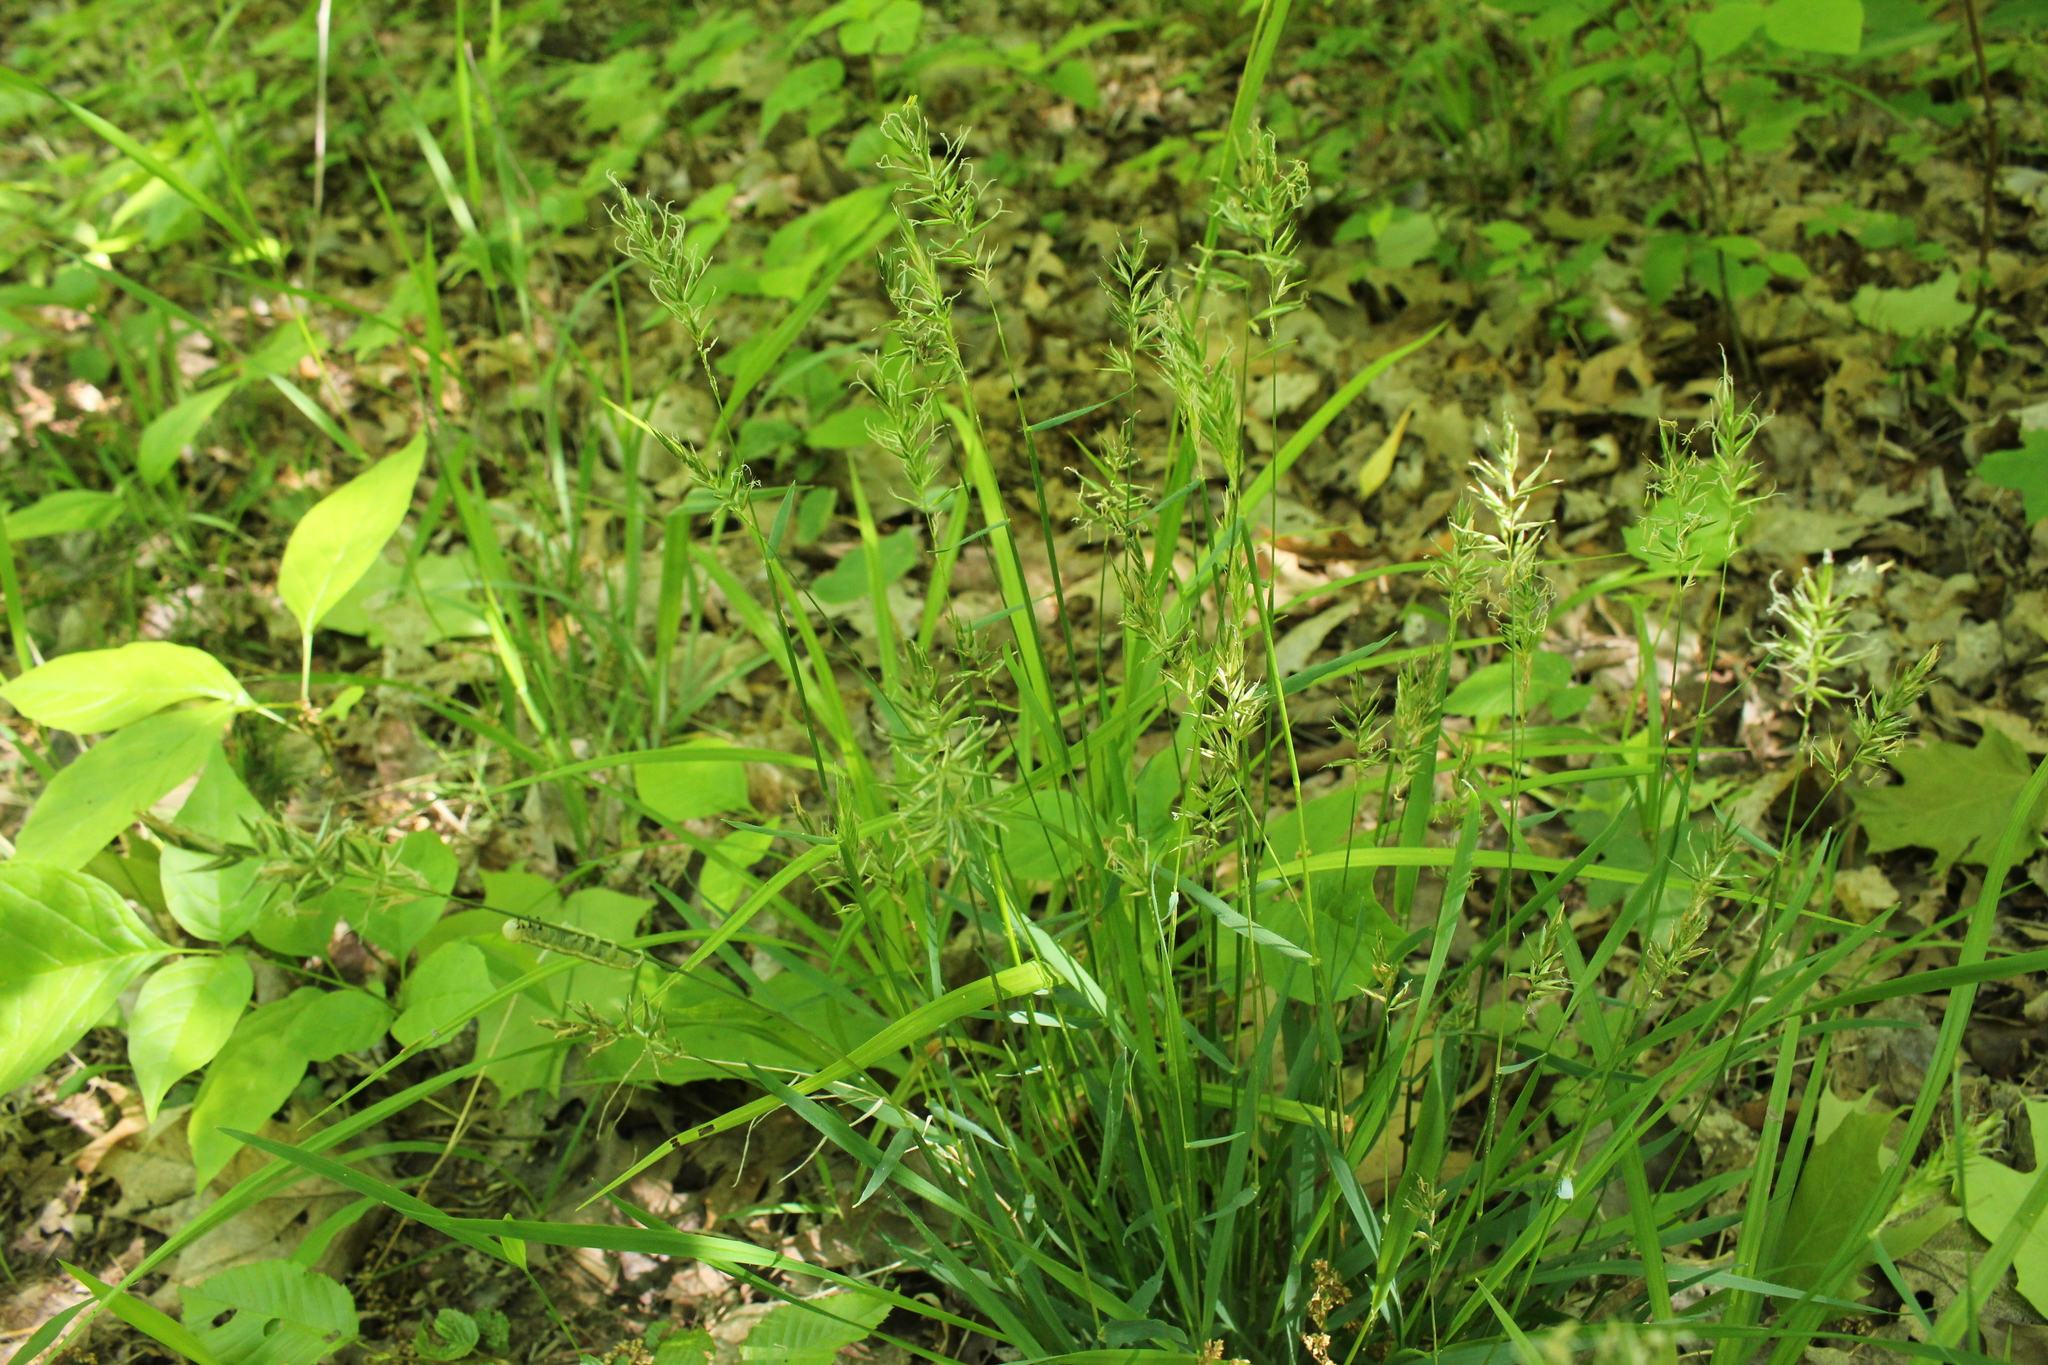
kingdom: Plantae
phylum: Tracheophyta
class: Liliopsida
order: Poales
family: Poaceae
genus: Anthoxanthum
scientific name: Anthoxanthum odoratum
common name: Sweet vernalgrass
